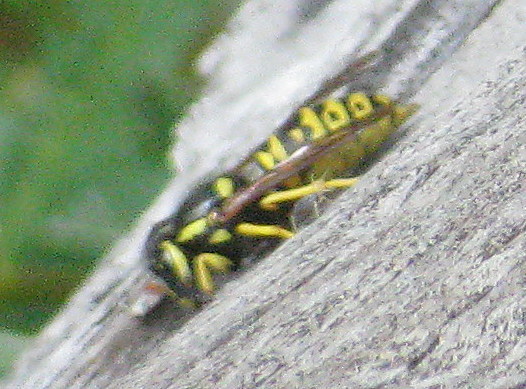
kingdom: Animalia
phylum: Arthropoda
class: Insecta
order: Hymenoptera
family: Vespidae
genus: Vespula
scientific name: Vespula atropilosa
